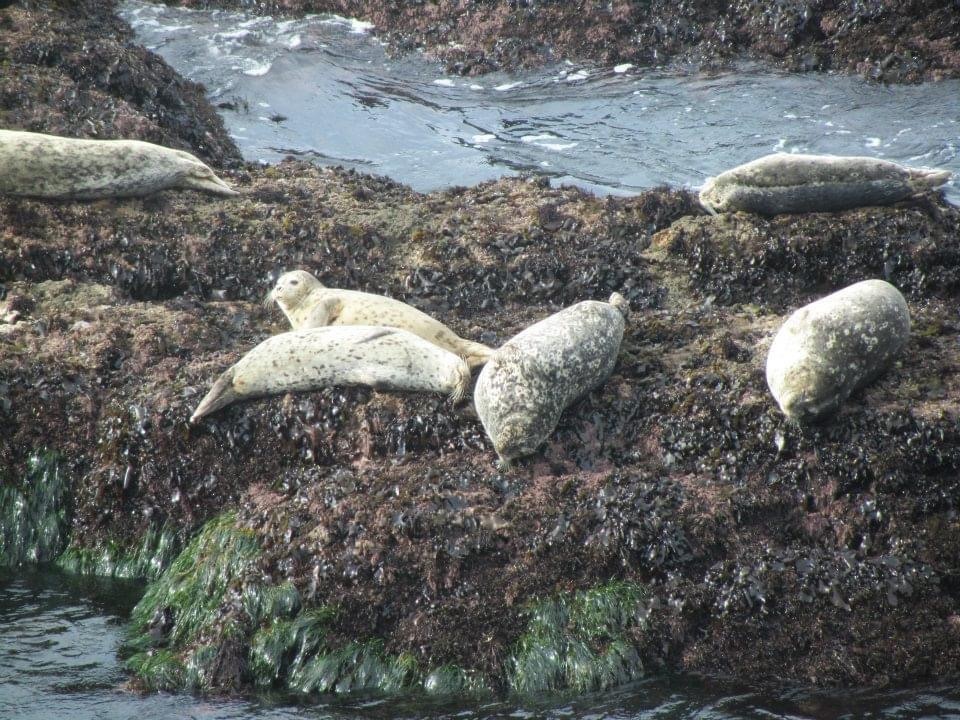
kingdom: Animalia
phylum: Chordata
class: Mammalia
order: Carnivora
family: Phocidae
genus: Phoca
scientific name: Phoca vitulina
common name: Harbor seal
